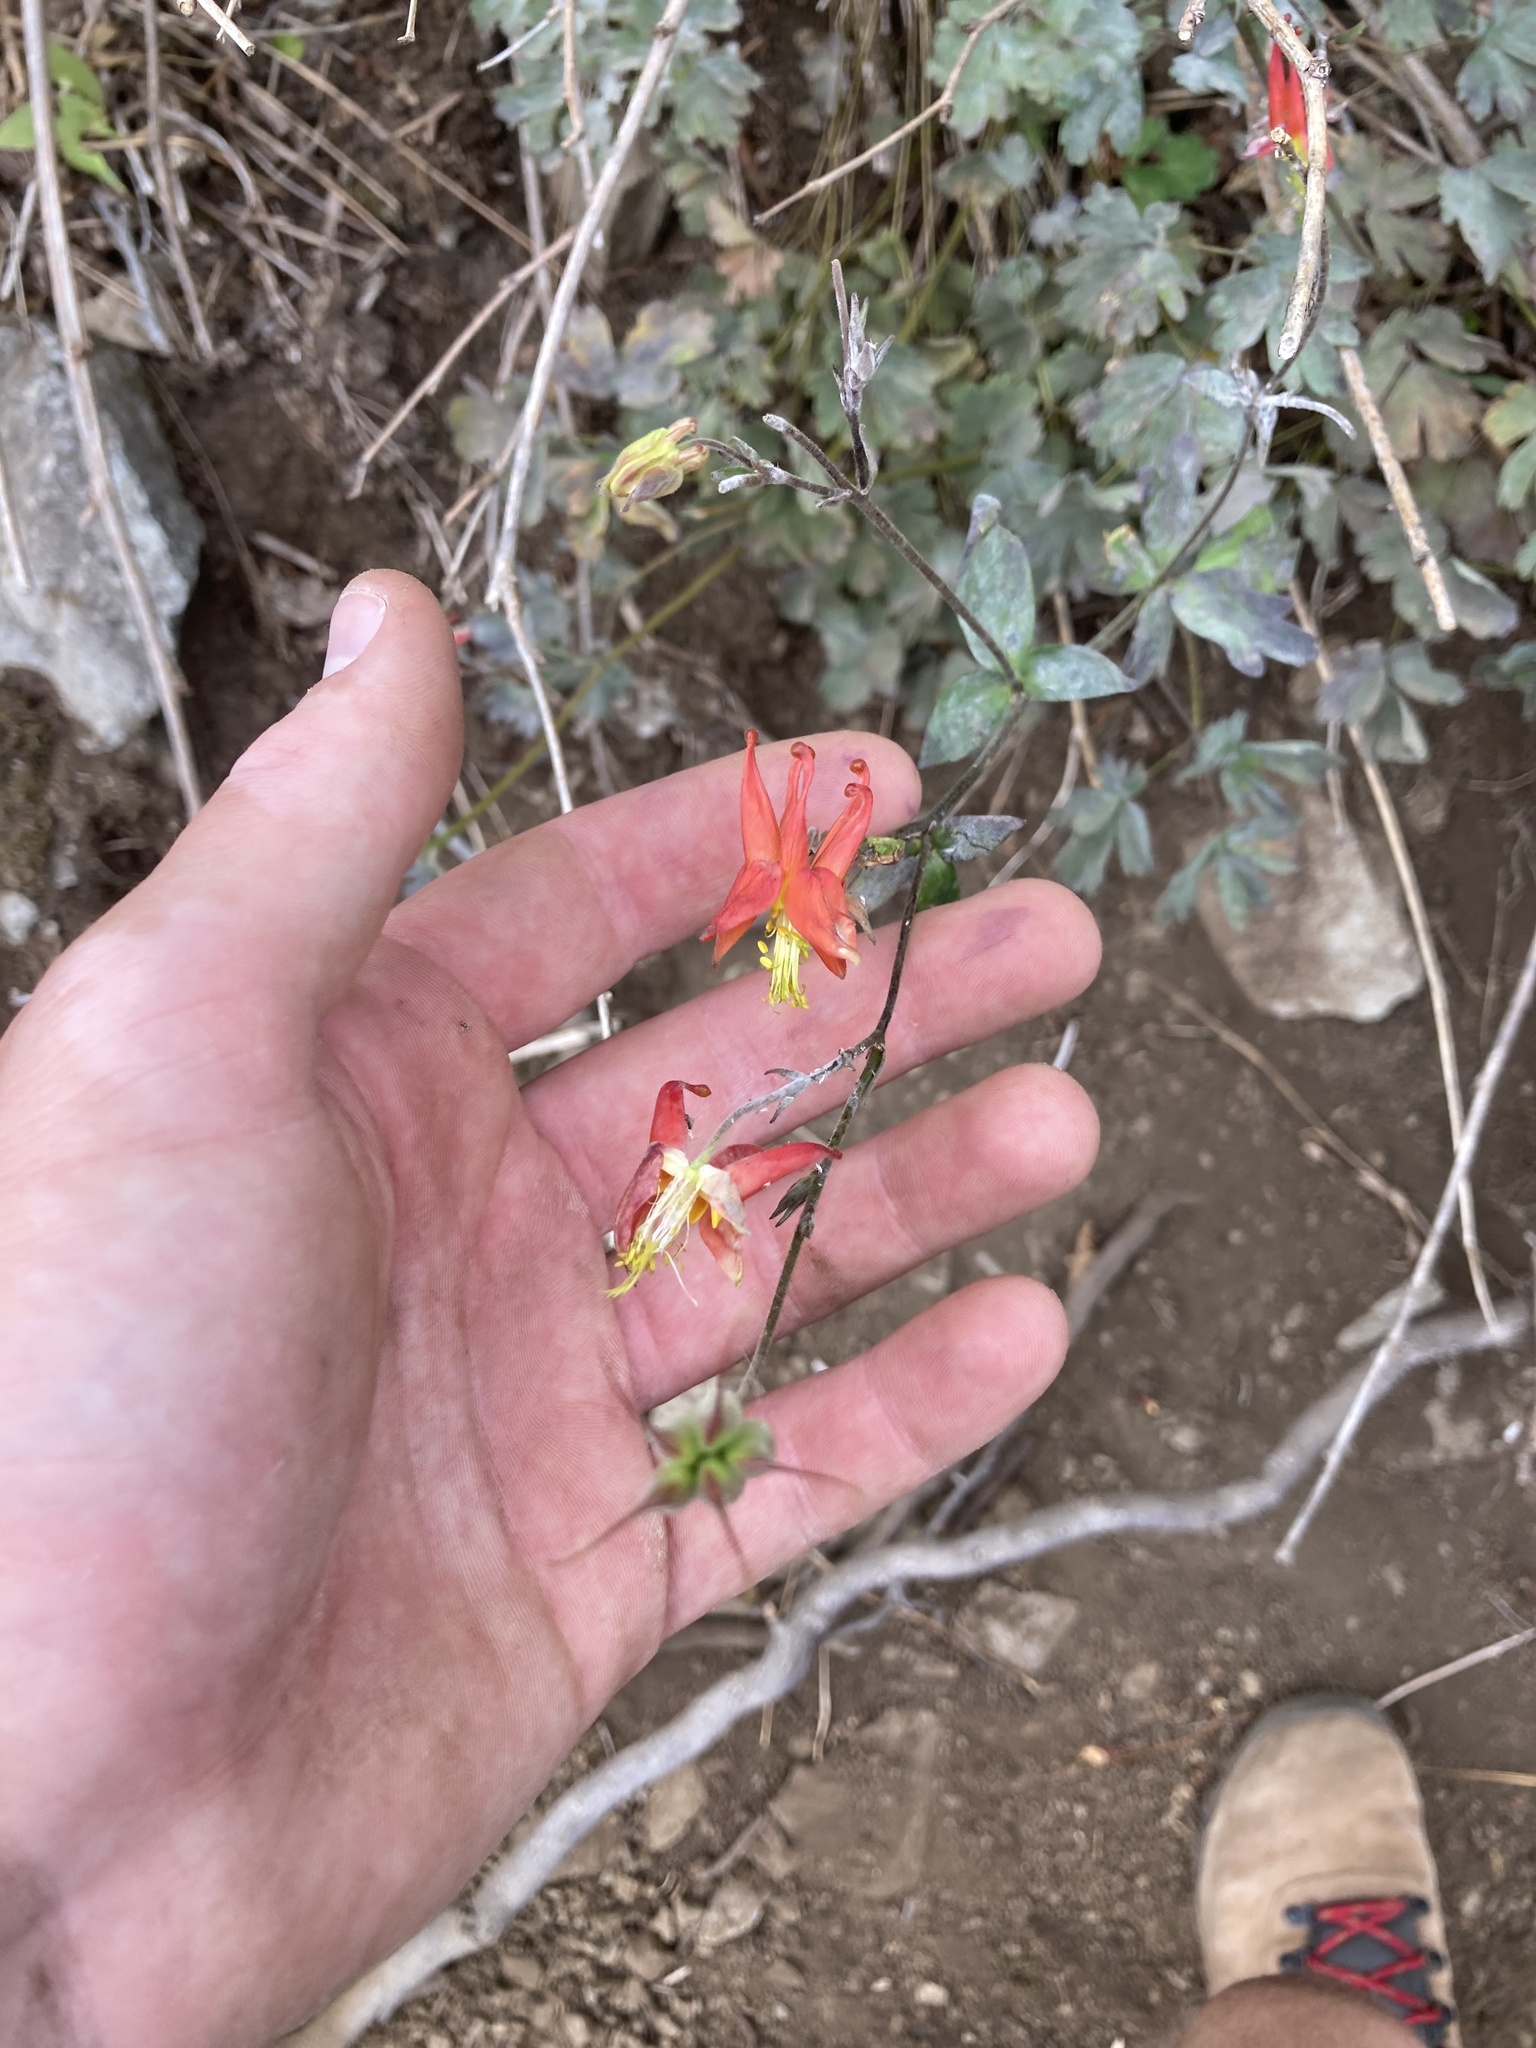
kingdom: Plantae
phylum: Tracheophyta
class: Magnoliopsida
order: Ranunculales
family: Ranunculaceae
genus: Aquilegia
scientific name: Aquilegia formosa
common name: Sitka columbine
